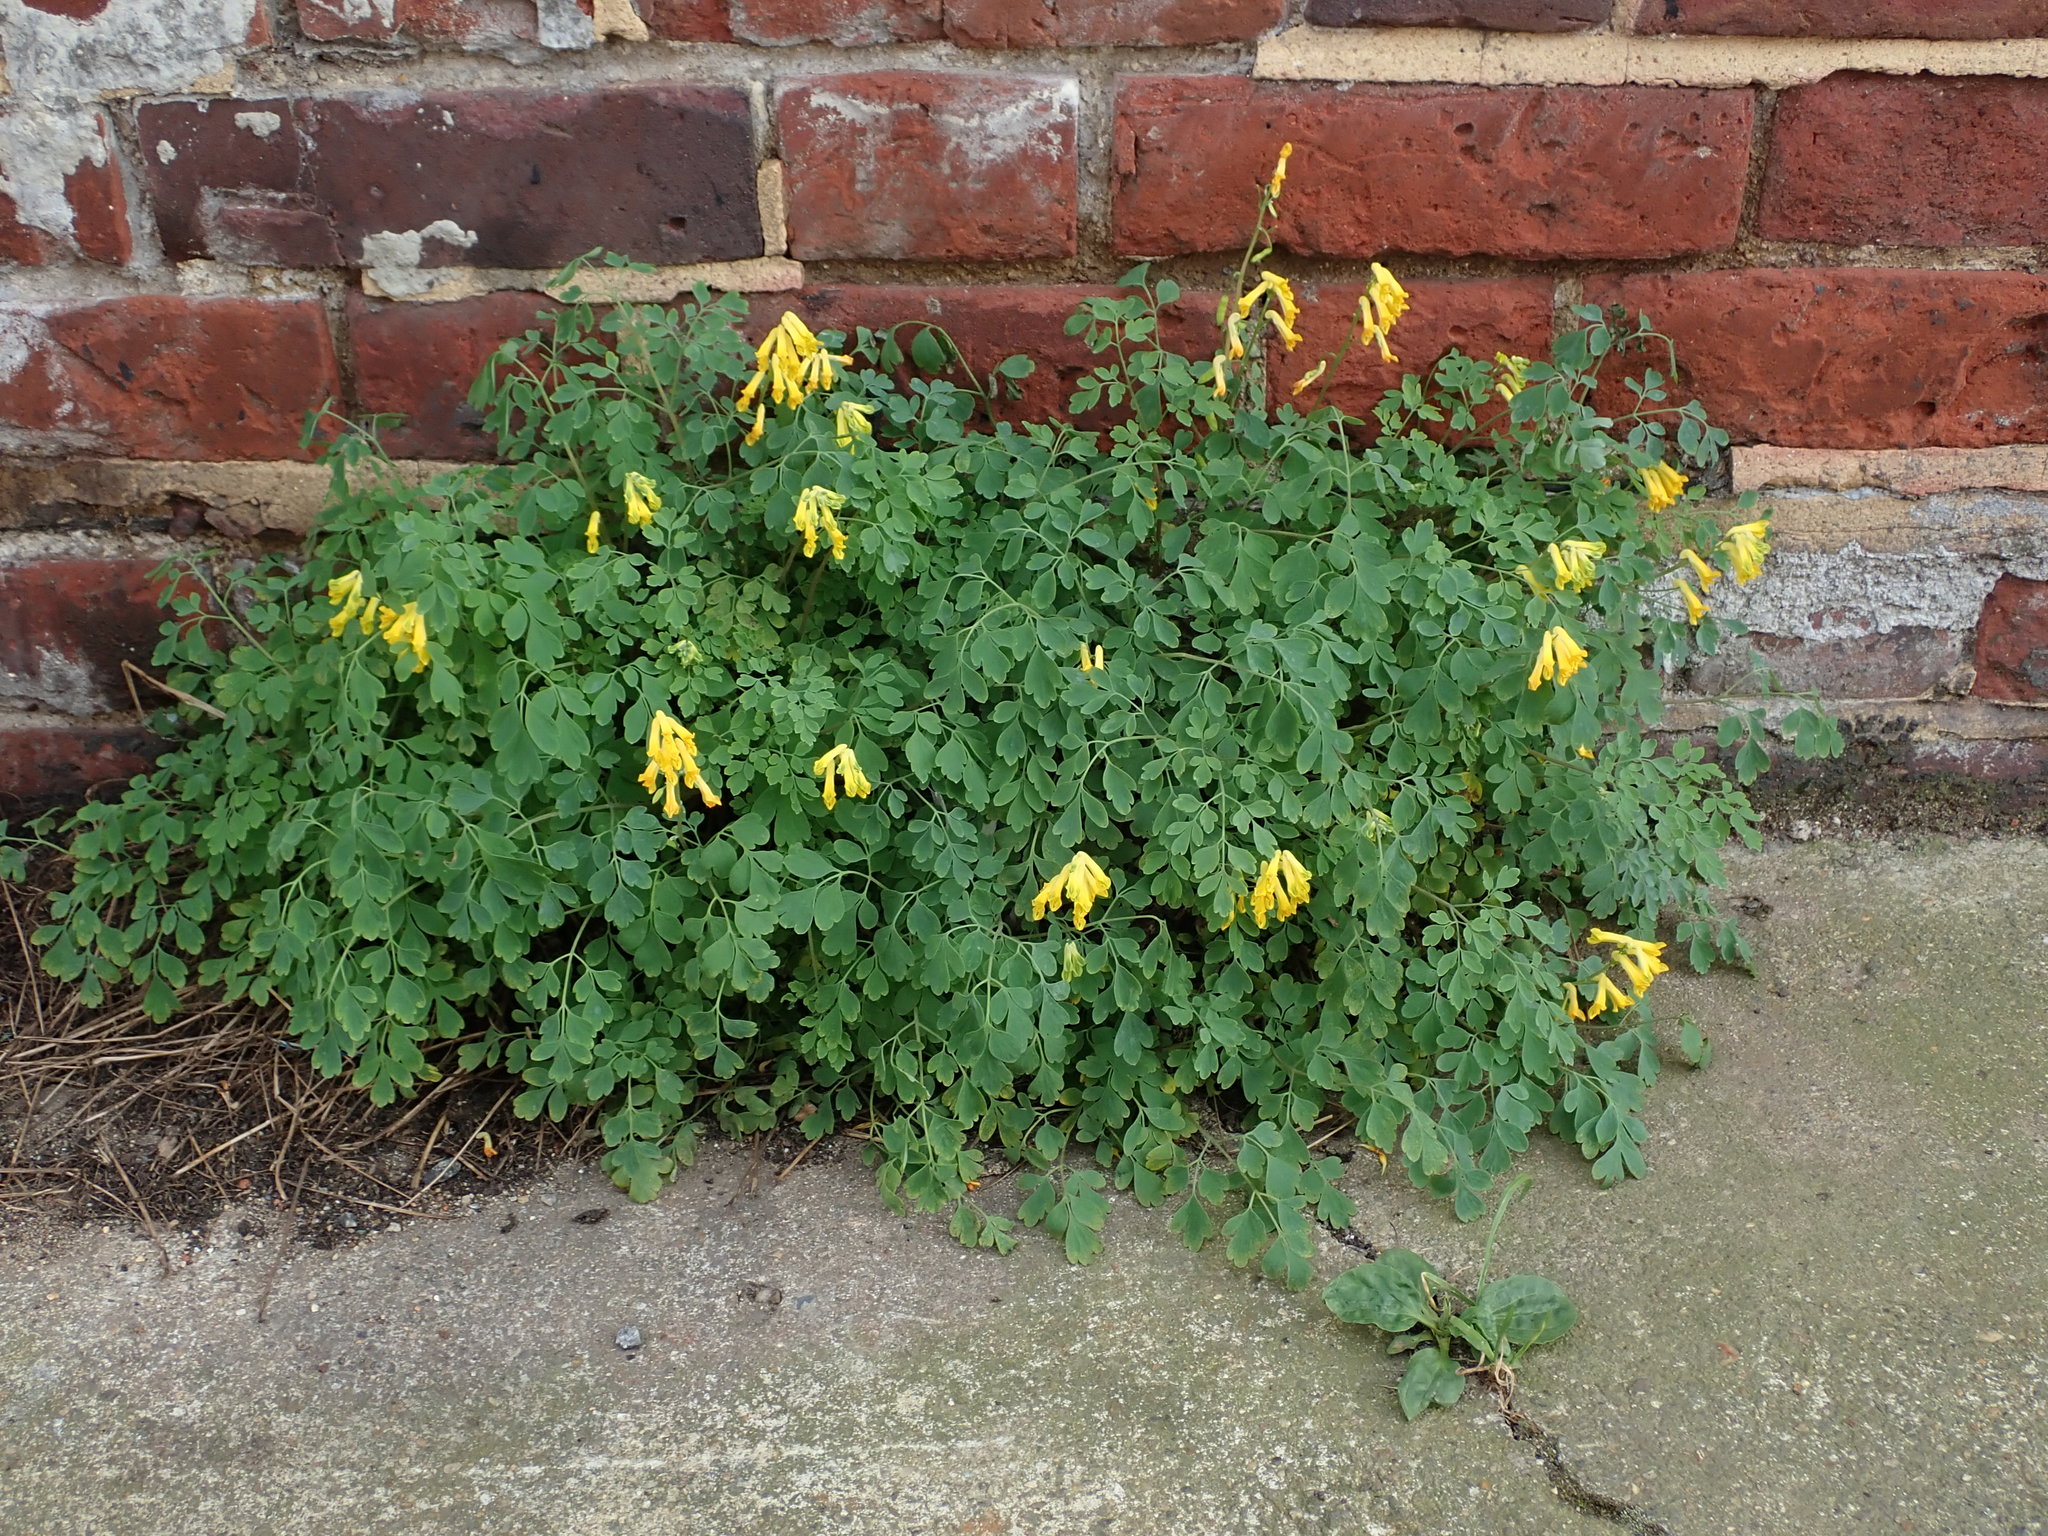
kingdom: Plantae
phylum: Tracheophyta
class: Magnoliopsida
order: Ranunculales
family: Papaveraceae
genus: Pseudofumaria
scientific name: Pseudofumaria lutea
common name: Yellow corydalis
